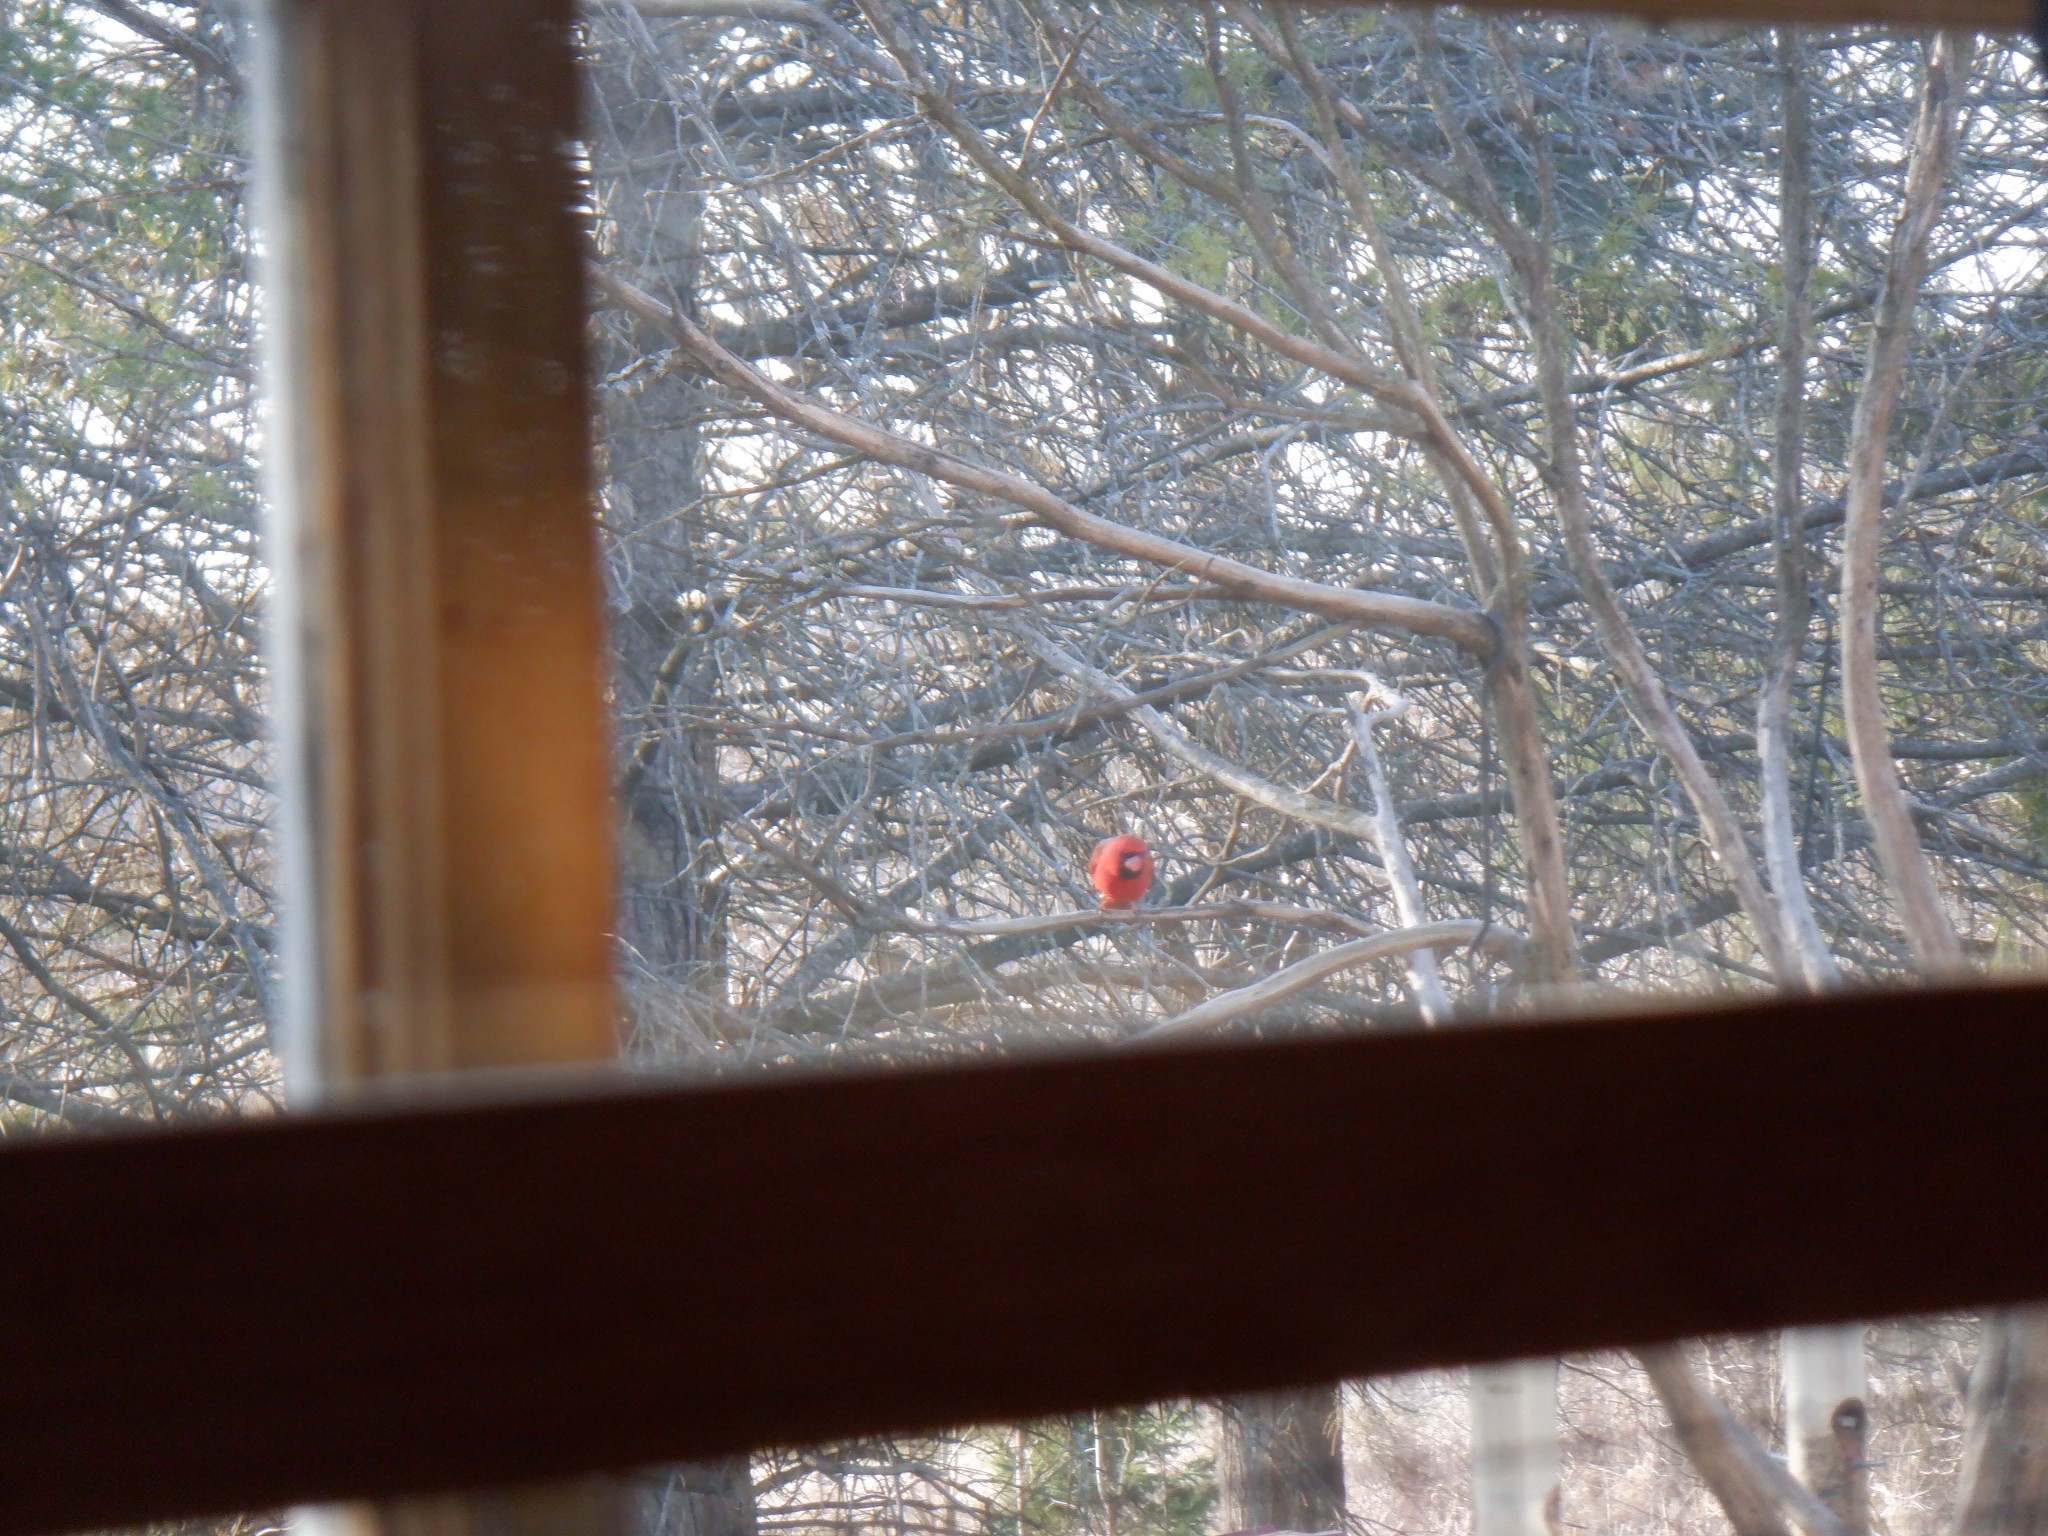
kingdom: Animalia
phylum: Chordata
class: Aves
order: Passeriformes
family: Cardinalidae
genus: Cardinalis
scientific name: Cardinalis cardinalis
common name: Northern cardinal
